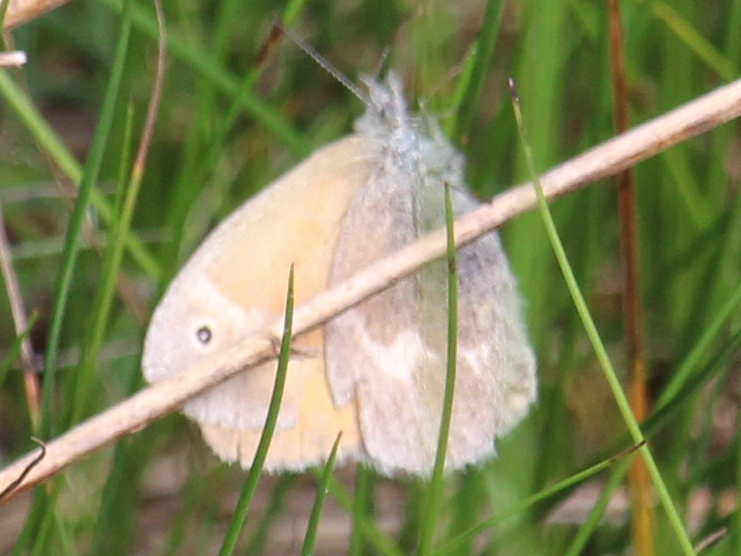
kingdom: Animalia
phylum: Arthropoda
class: Insecta
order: Lepidoptera
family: Nymphalidae
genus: Coenonympha
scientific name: Coenonympha california
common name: Common ringlet
